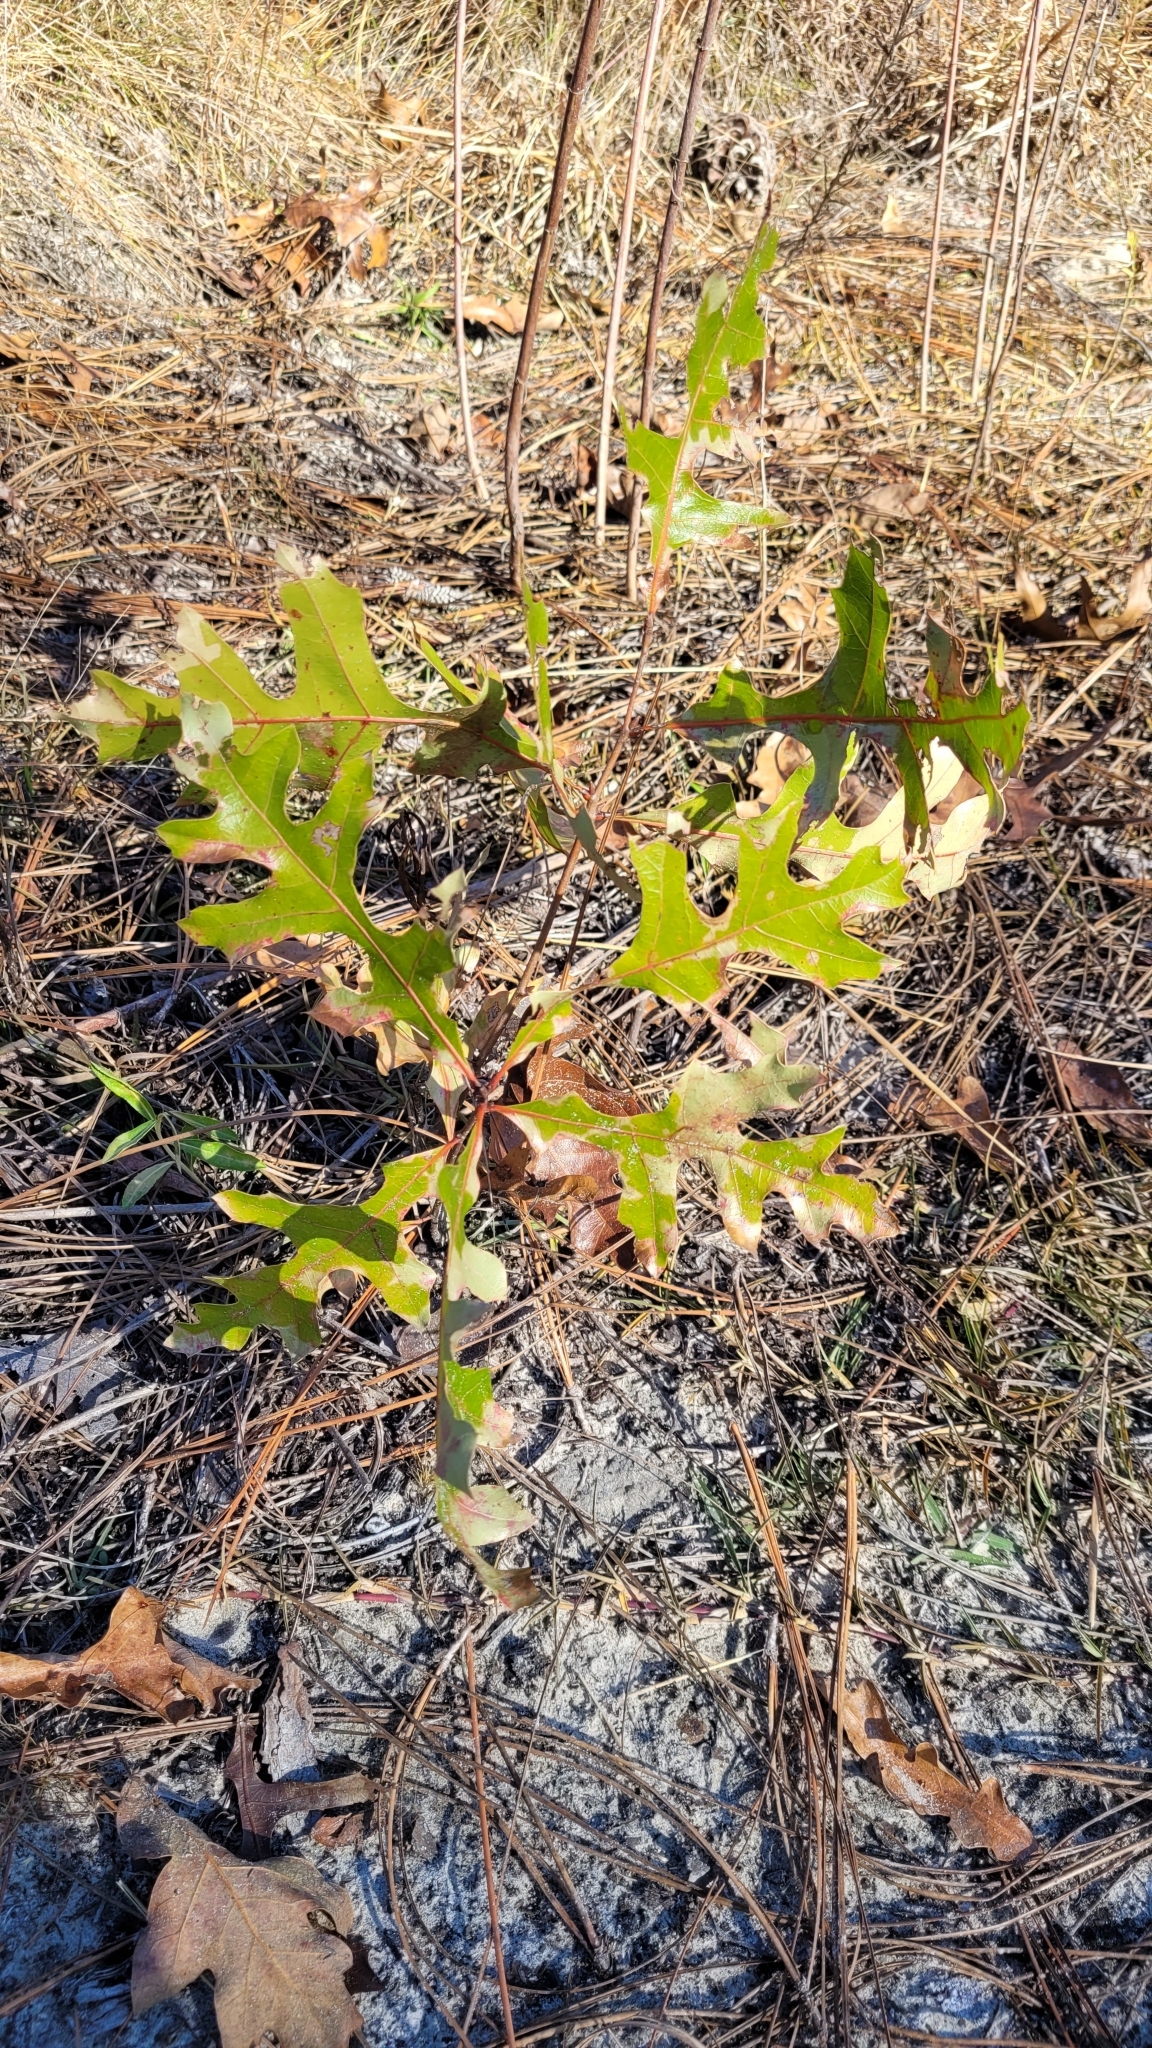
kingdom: Plantae
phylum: Tracheophyta
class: Magnoliopsida
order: Fagales
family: Fagaceae
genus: Quercus
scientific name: Quercus laevis
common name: Turkey oak
